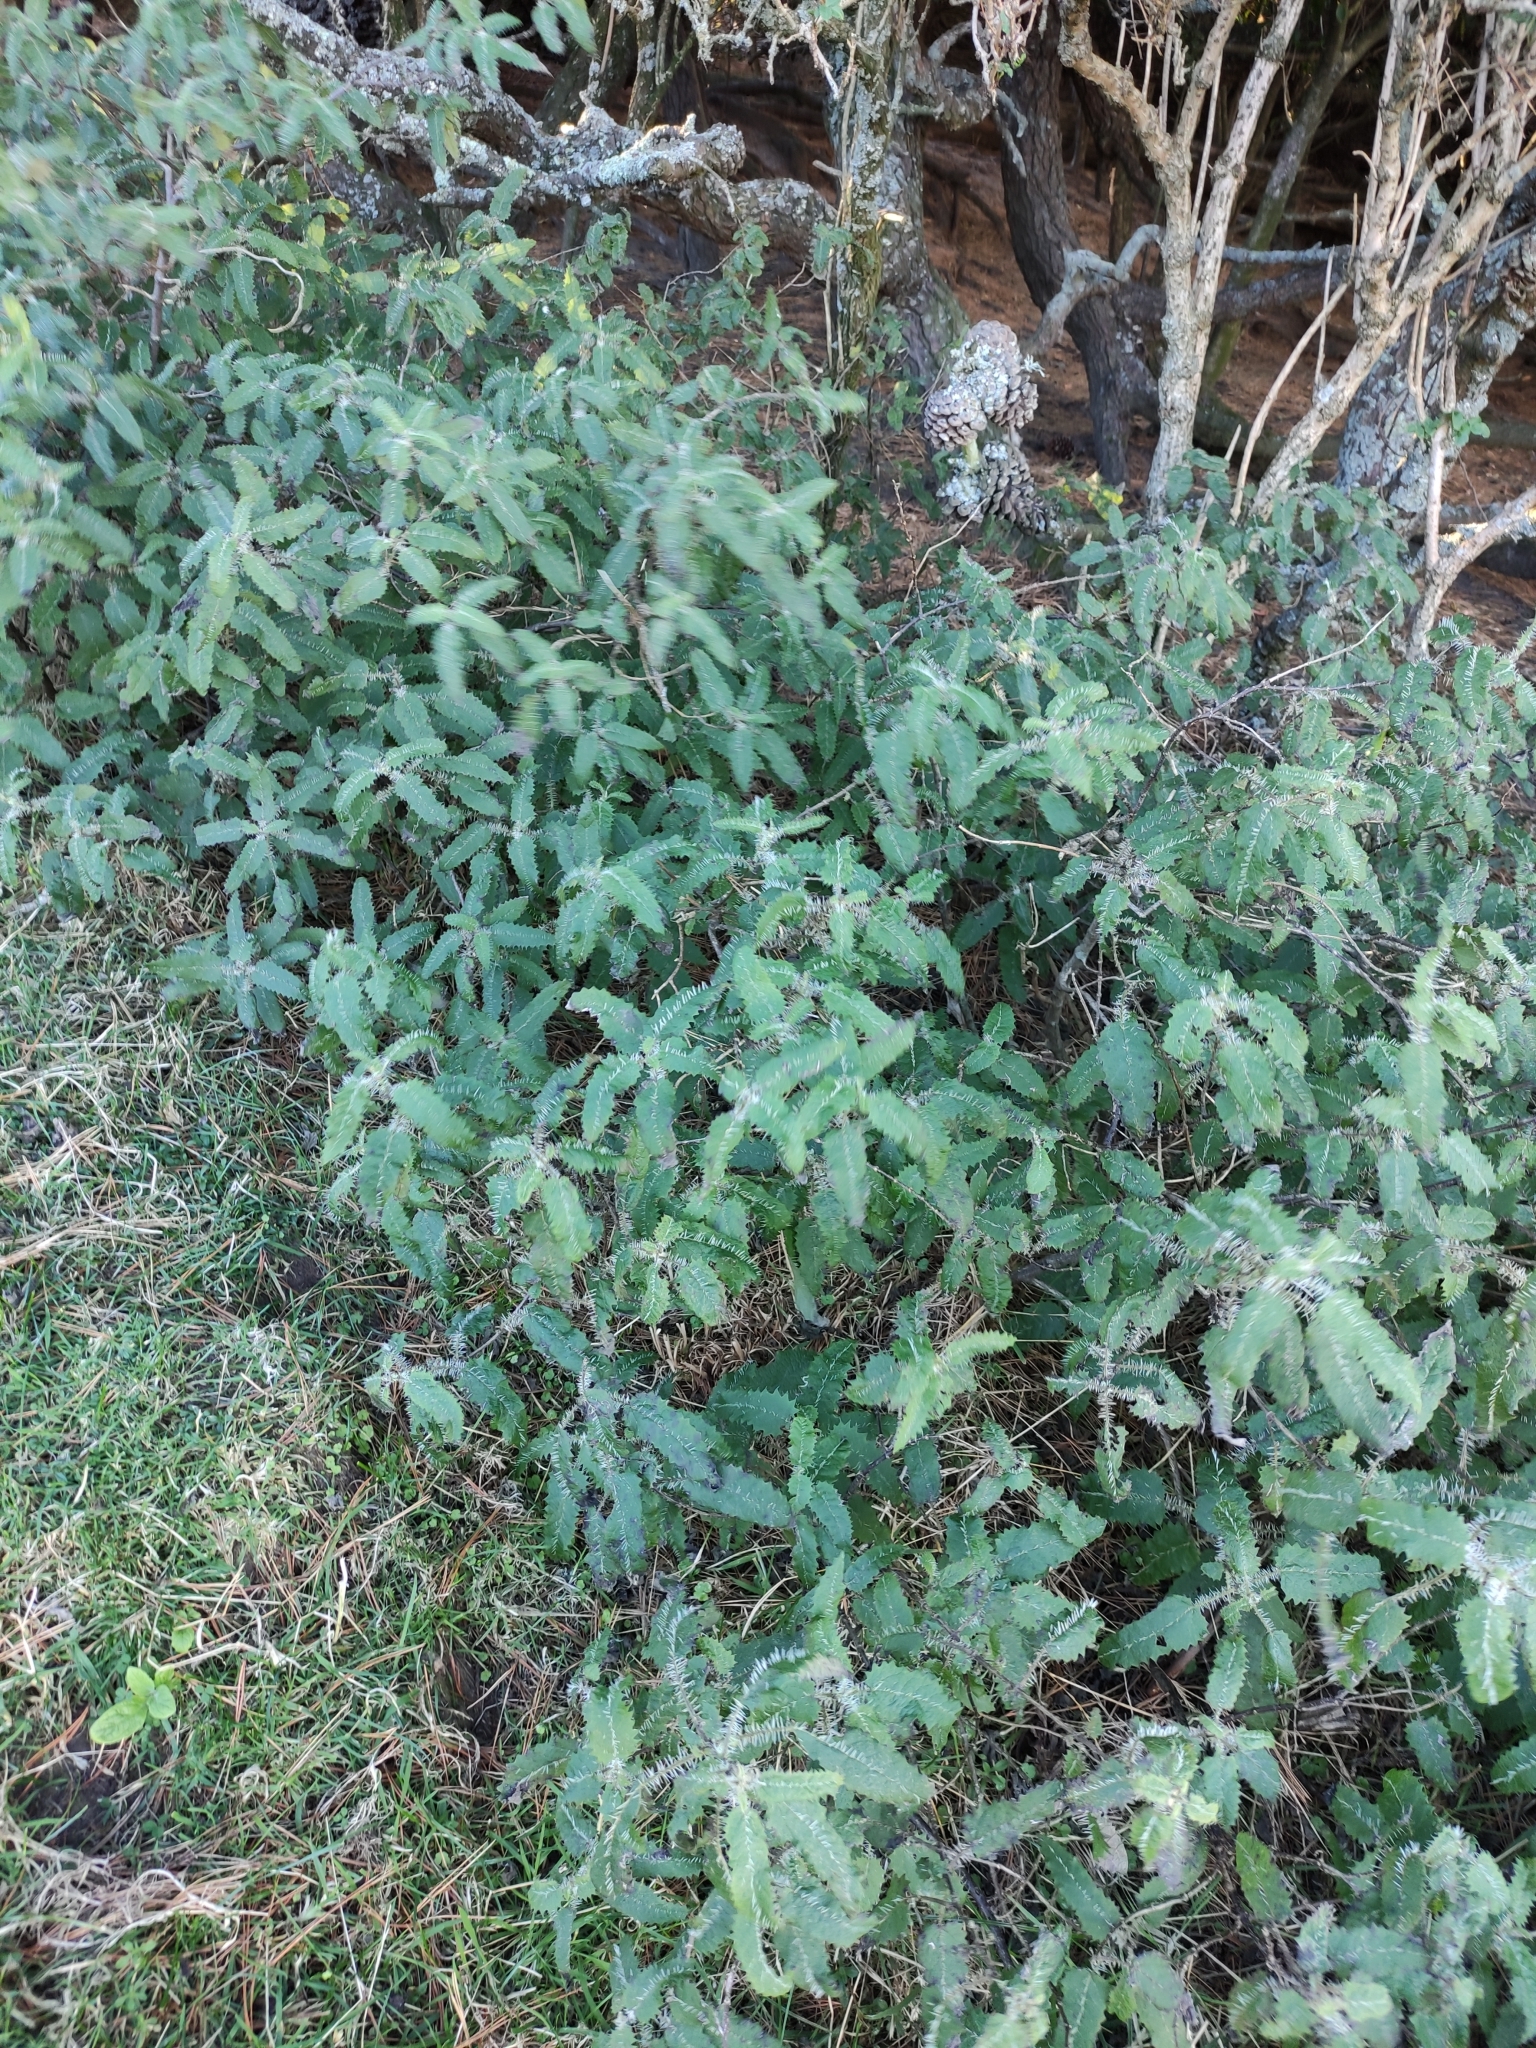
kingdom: Plantae
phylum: Tracheophyta
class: Magnoliopsida
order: Rosales
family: Urticaceae
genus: Urtica
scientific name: Urtica ferox
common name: Tree nettle
